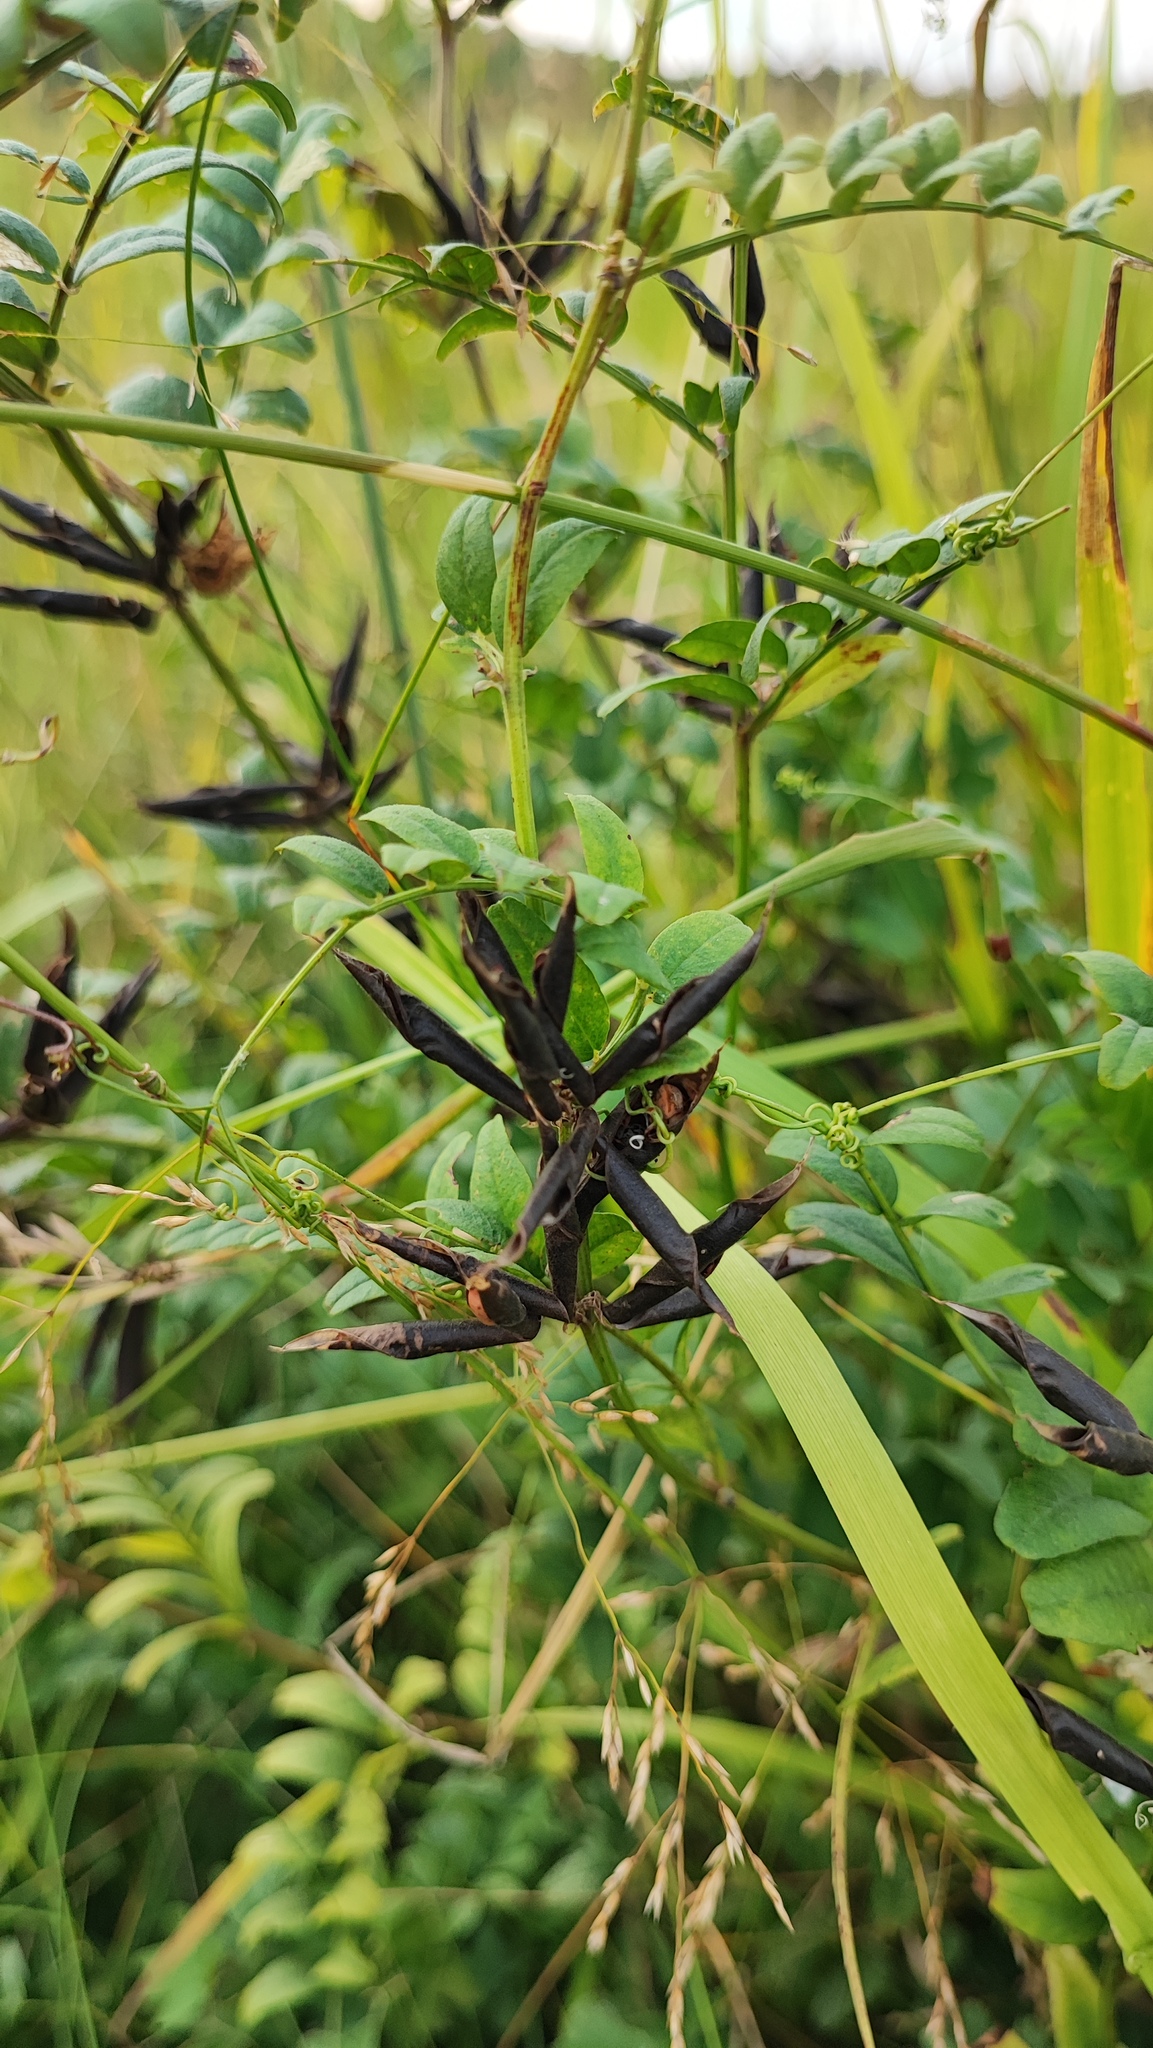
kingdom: Plantae
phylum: Tracheophyta
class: Magnoliopsida
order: Fabales
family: Fabaceae
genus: Vicia
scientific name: Vicia sepium
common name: Bush vetch
